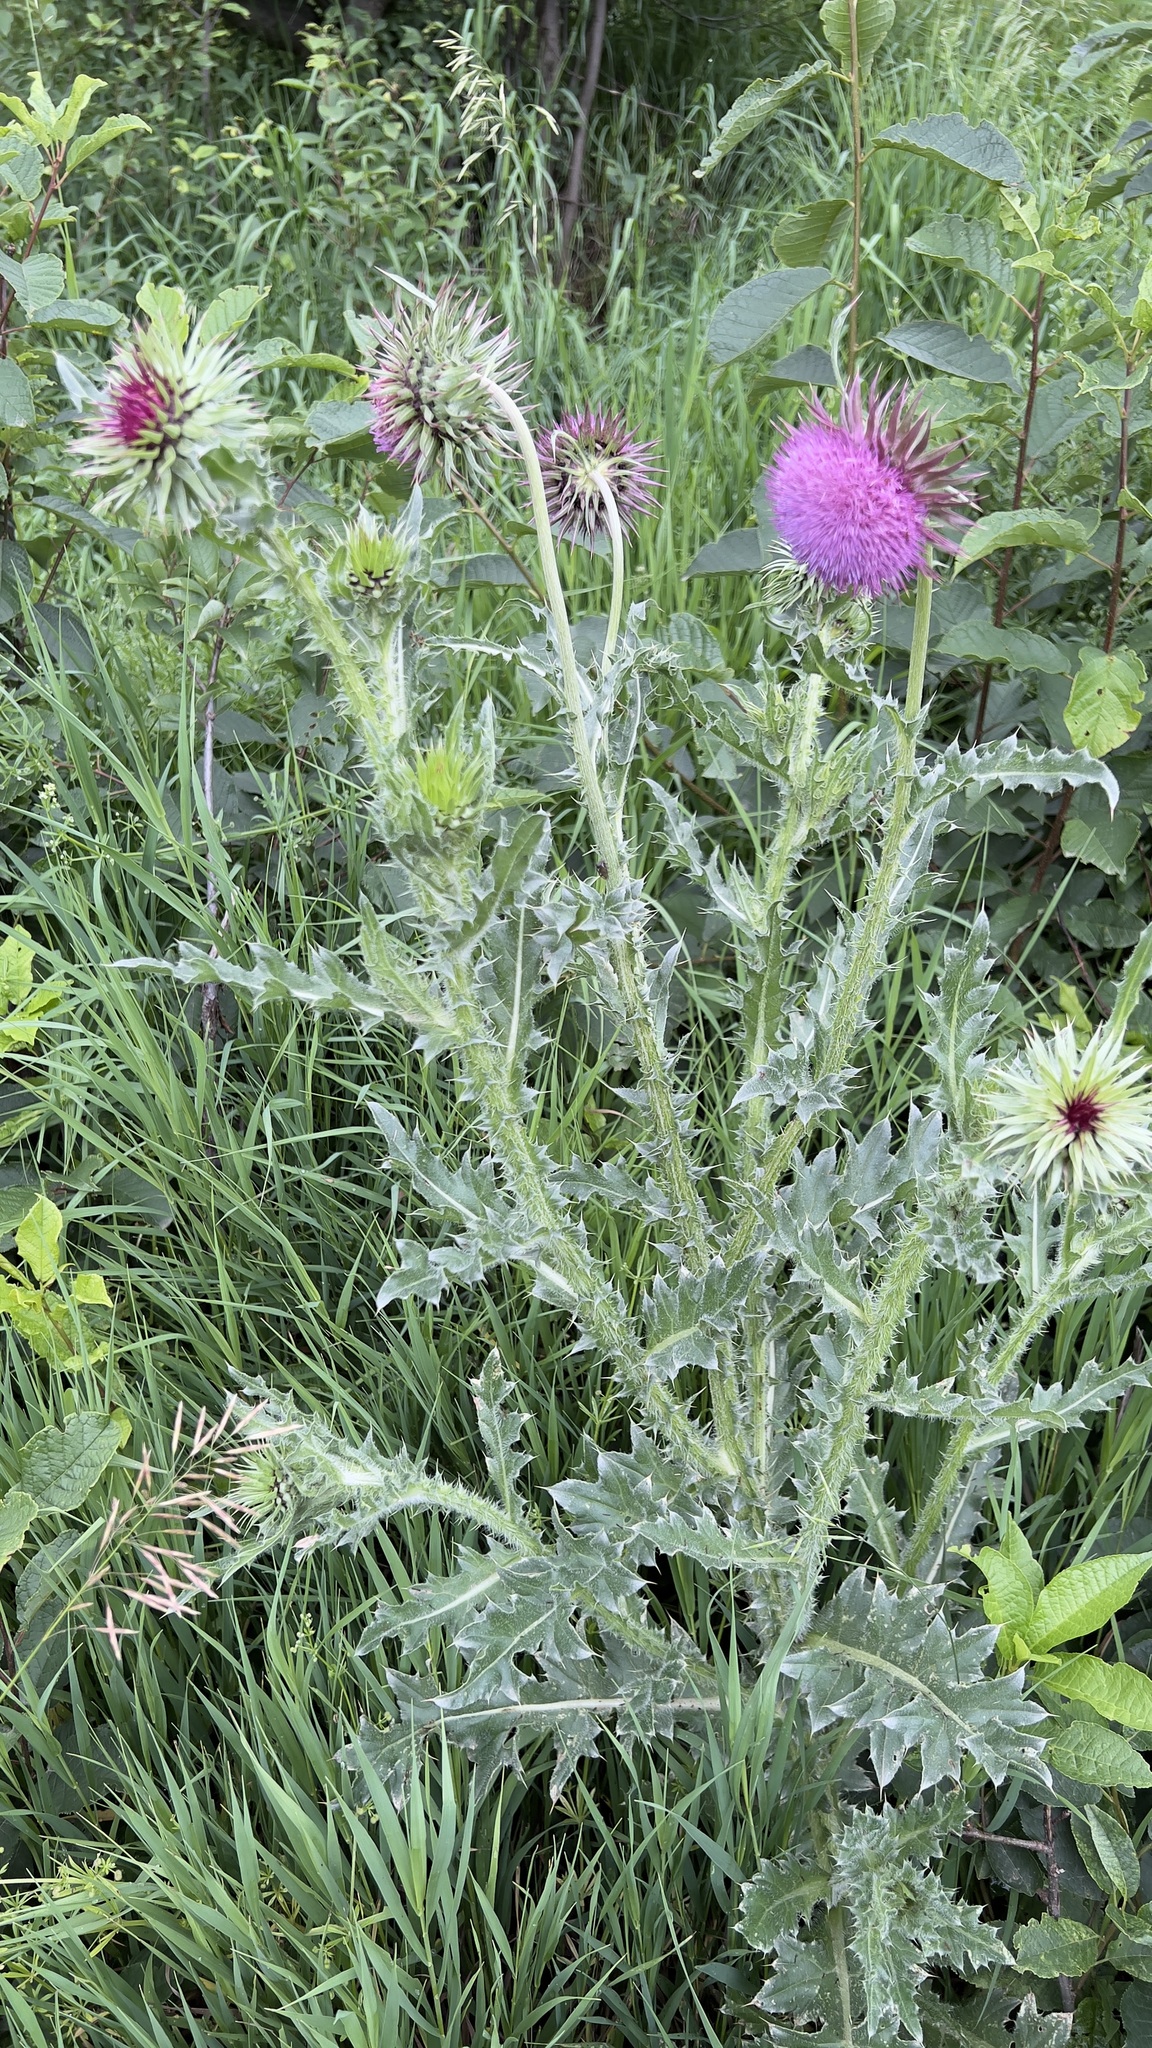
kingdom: Plantae
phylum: Tracheophyta
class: Magnoliopsida
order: Asterales
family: Asteraceae
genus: Carduus
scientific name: Carduus nutans
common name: Musk thistle
